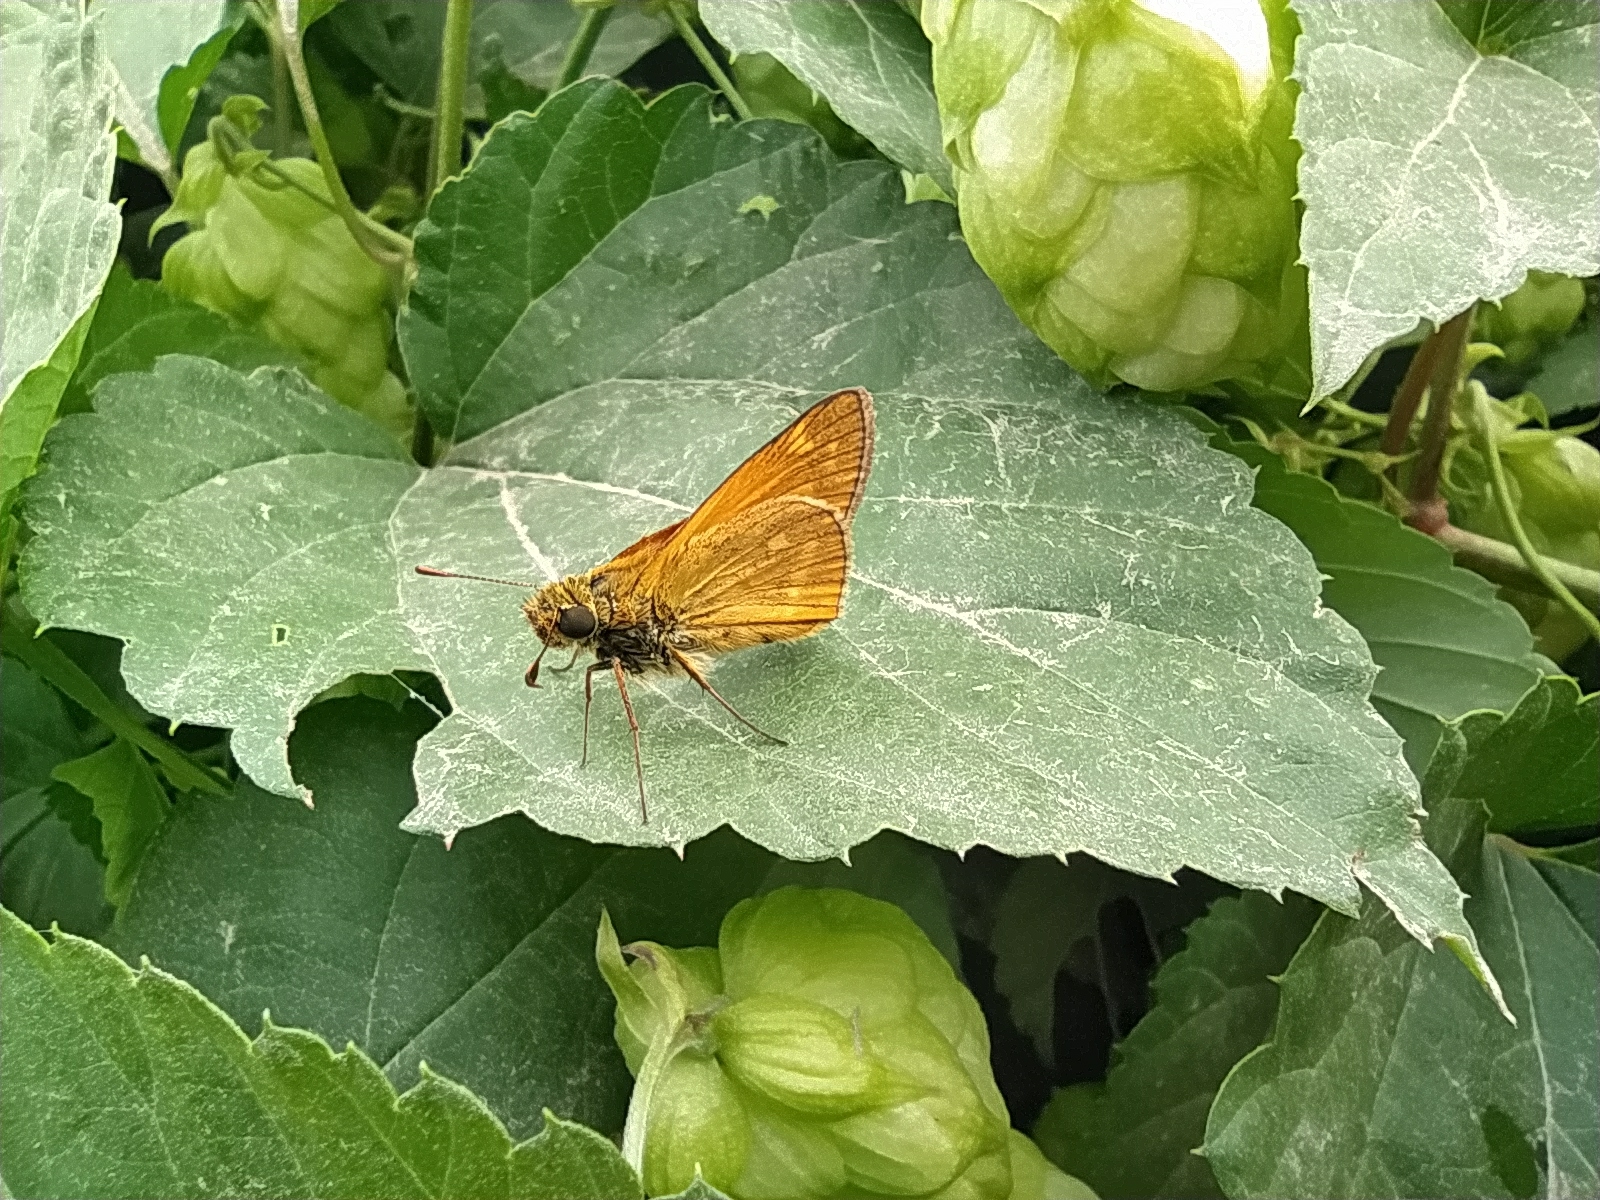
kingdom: Animalia
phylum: Arthropoda
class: Insecta
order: Lepidoptera
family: Hesperiidae
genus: Ochlodes
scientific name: Ochlodes venata
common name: Large skipper
